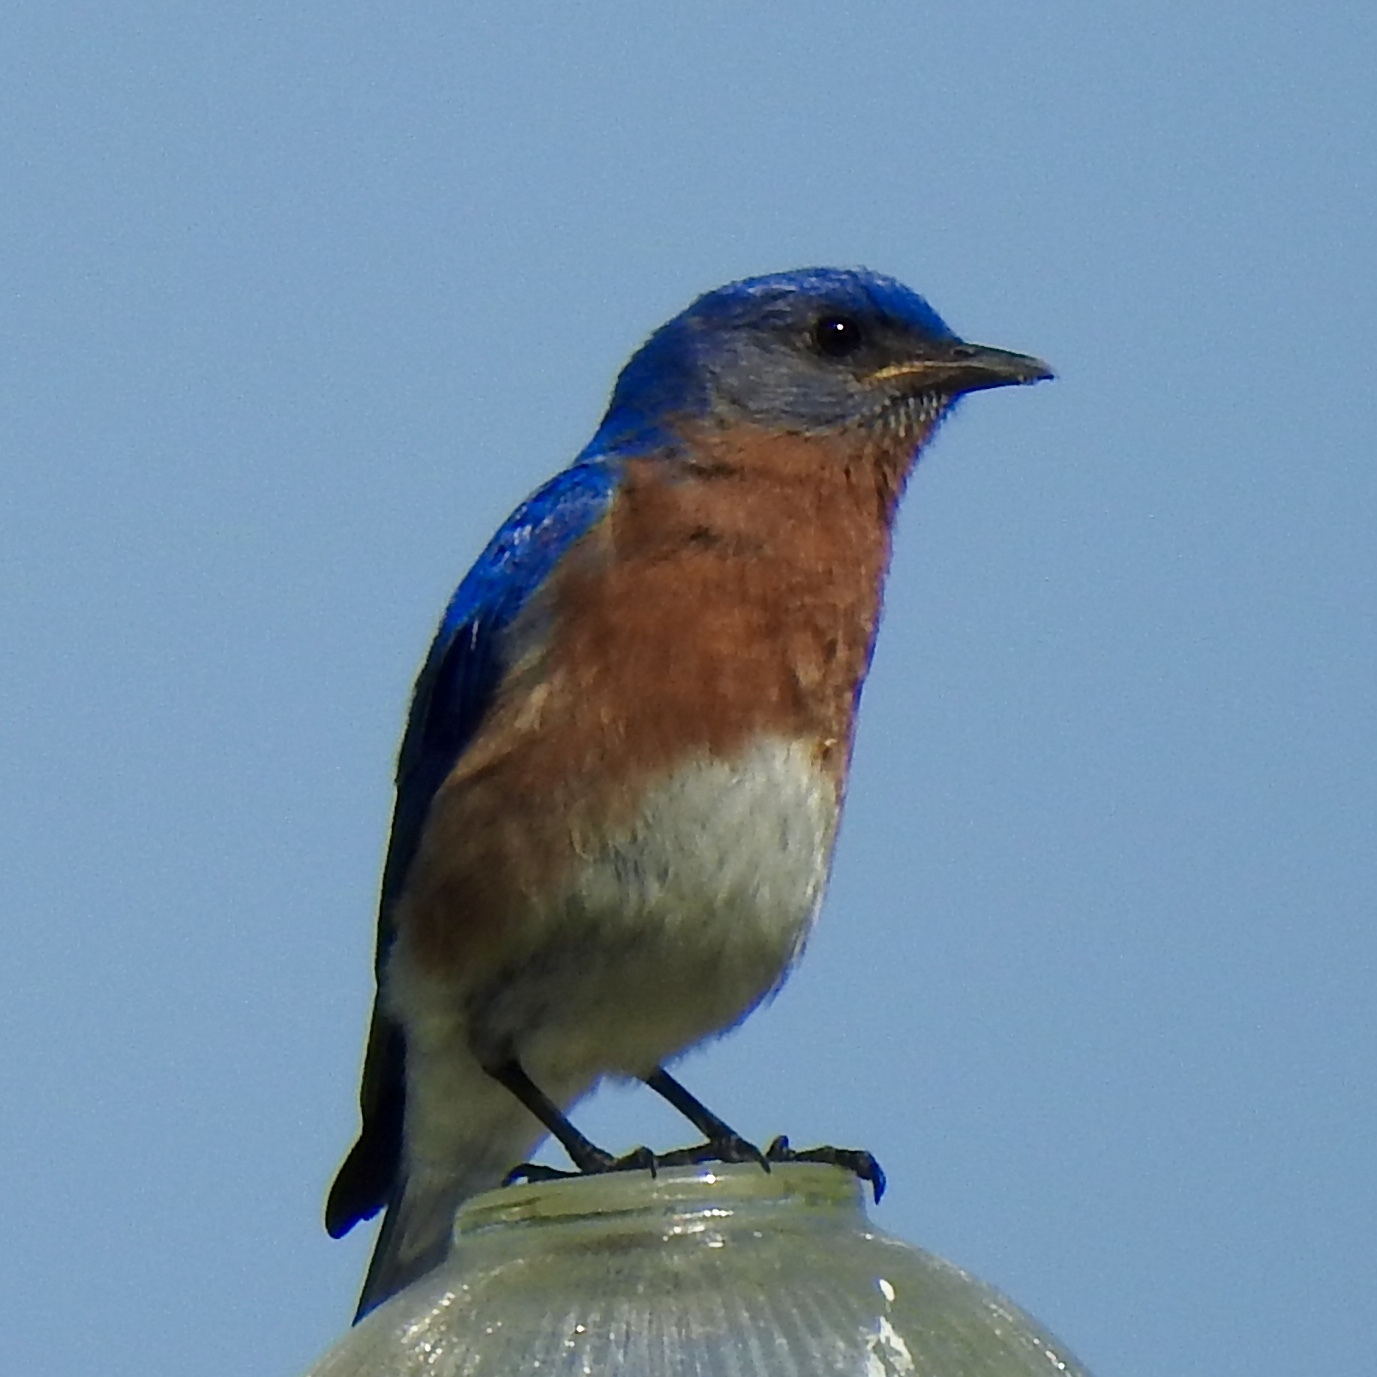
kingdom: Animalia
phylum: Chordata
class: Aves
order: Passeriformes
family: Turdidae
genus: Sialia
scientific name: Sialia sialis
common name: Eastern bluebird
